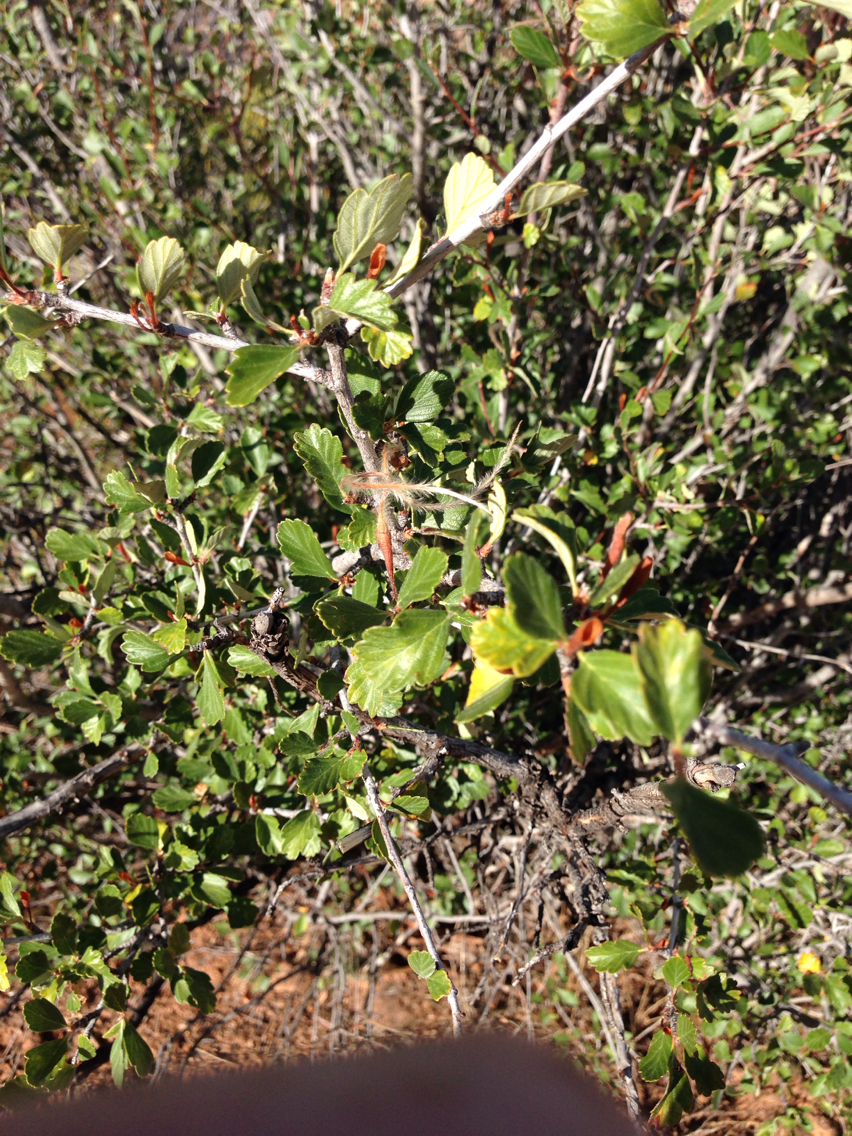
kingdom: Plantae
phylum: Tracheophyta
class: Magnoliopsida
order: Rosales
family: Rosaceae
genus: Cercocarpus
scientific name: Cercocarpus montanus
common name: Alder-leaf cercocarpus
